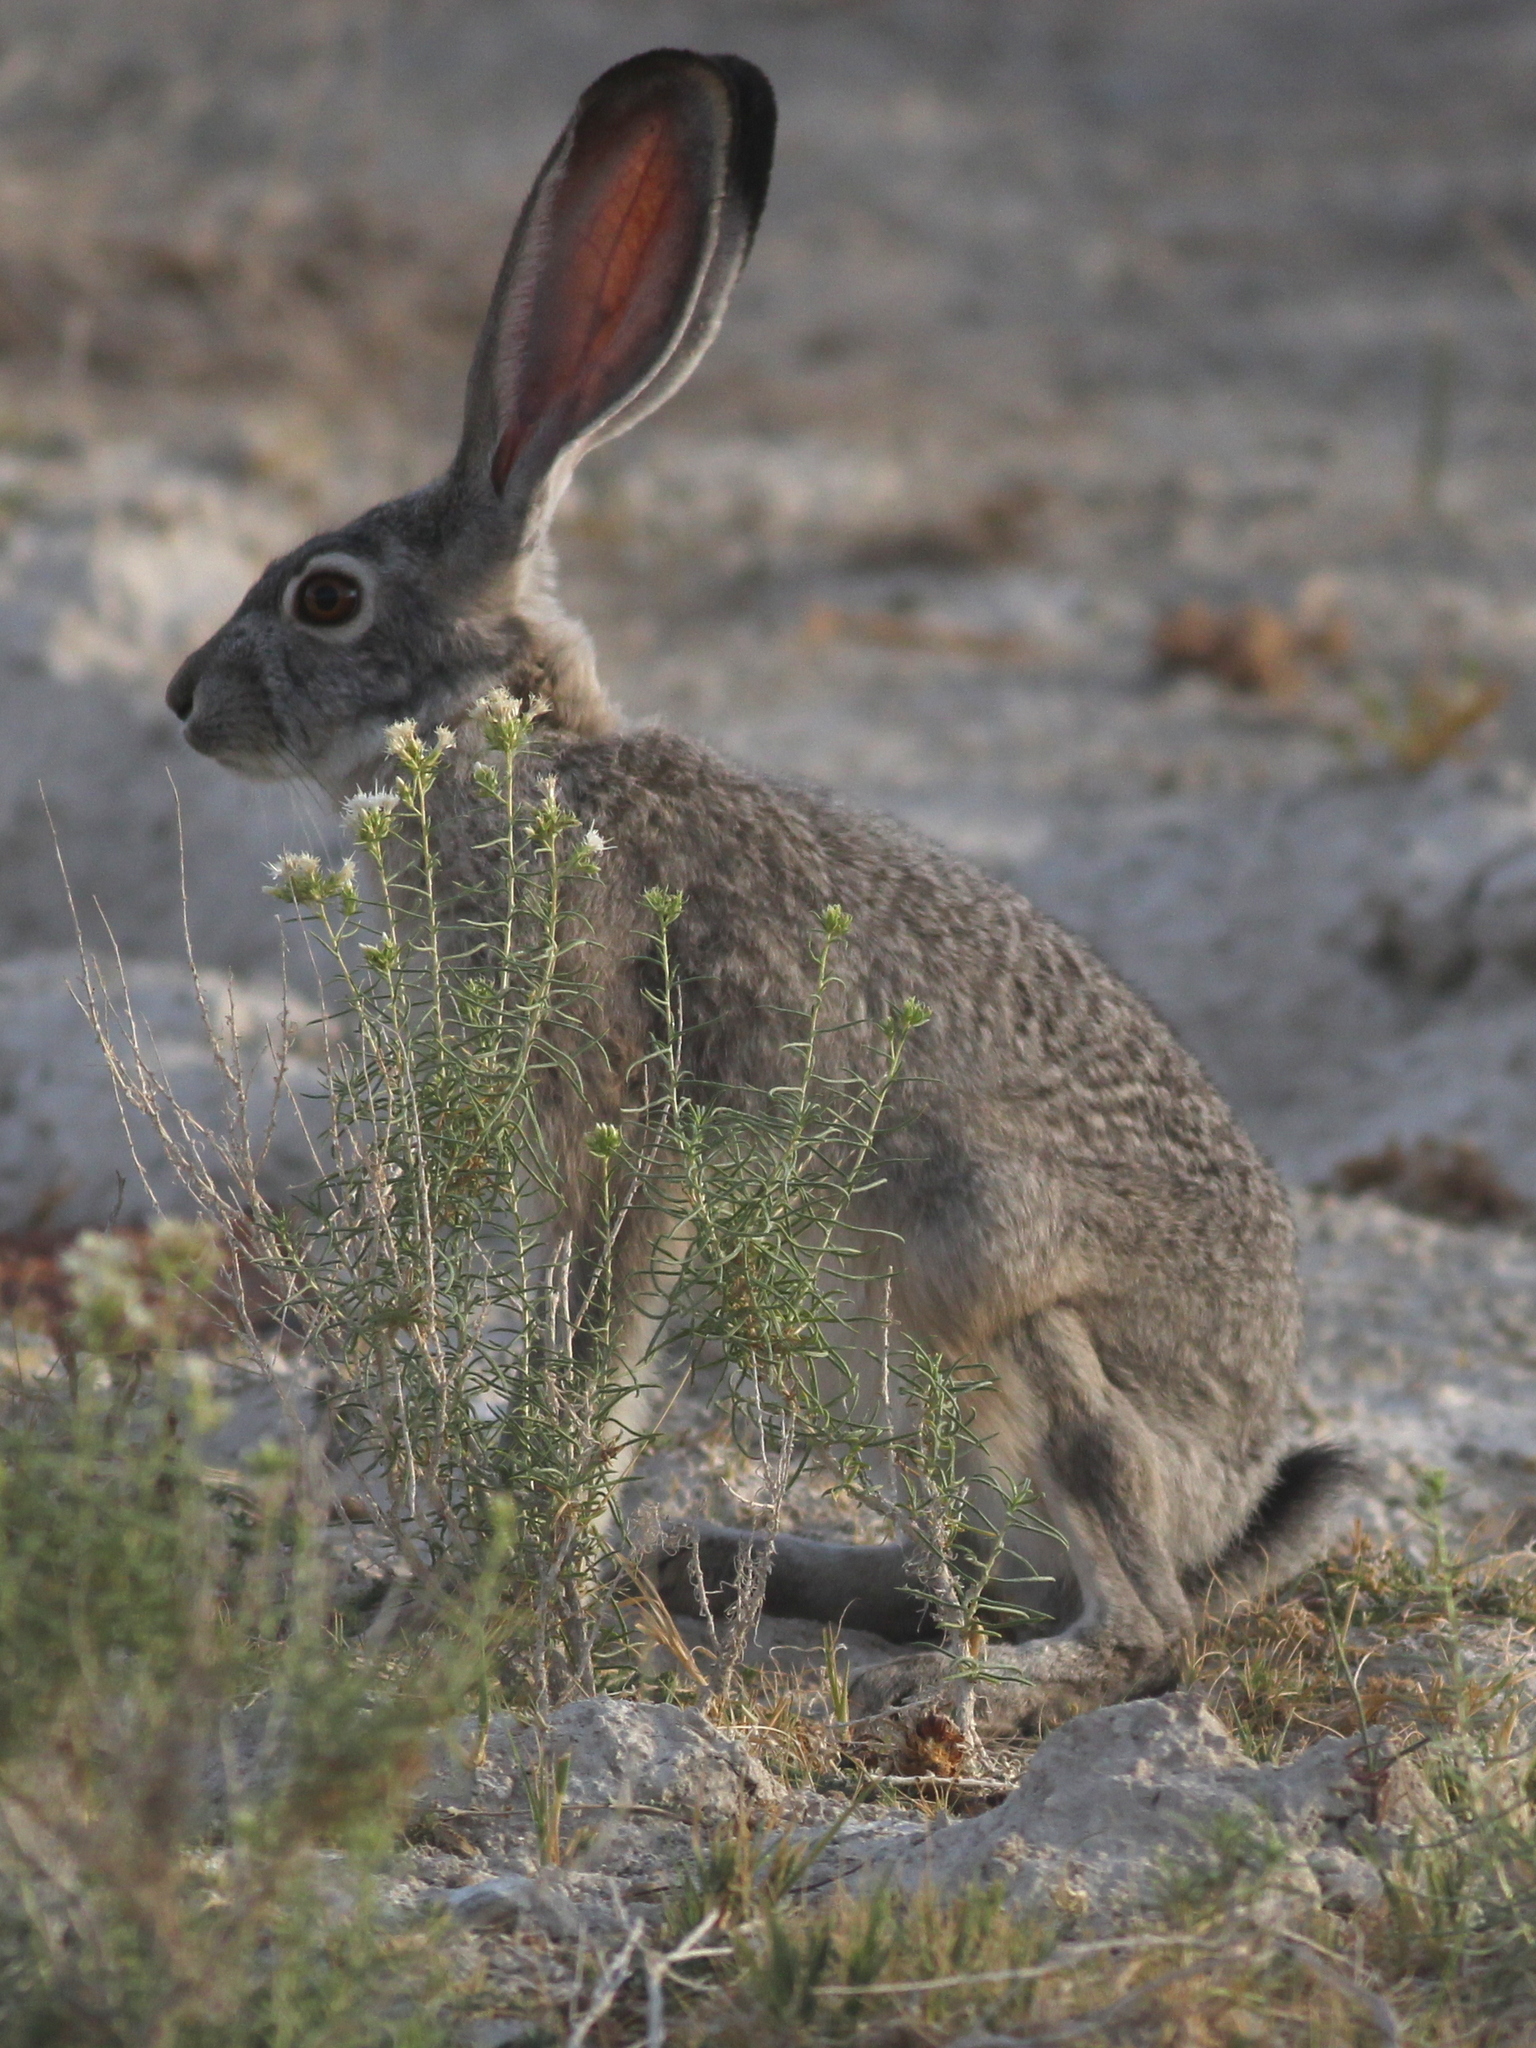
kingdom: Animalia
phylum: Chordata
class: Mammalia
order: Lagomorpha
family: Leporidae
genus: Lepus
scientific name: Lepus californicus
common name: Black-tailed jackrabbit
